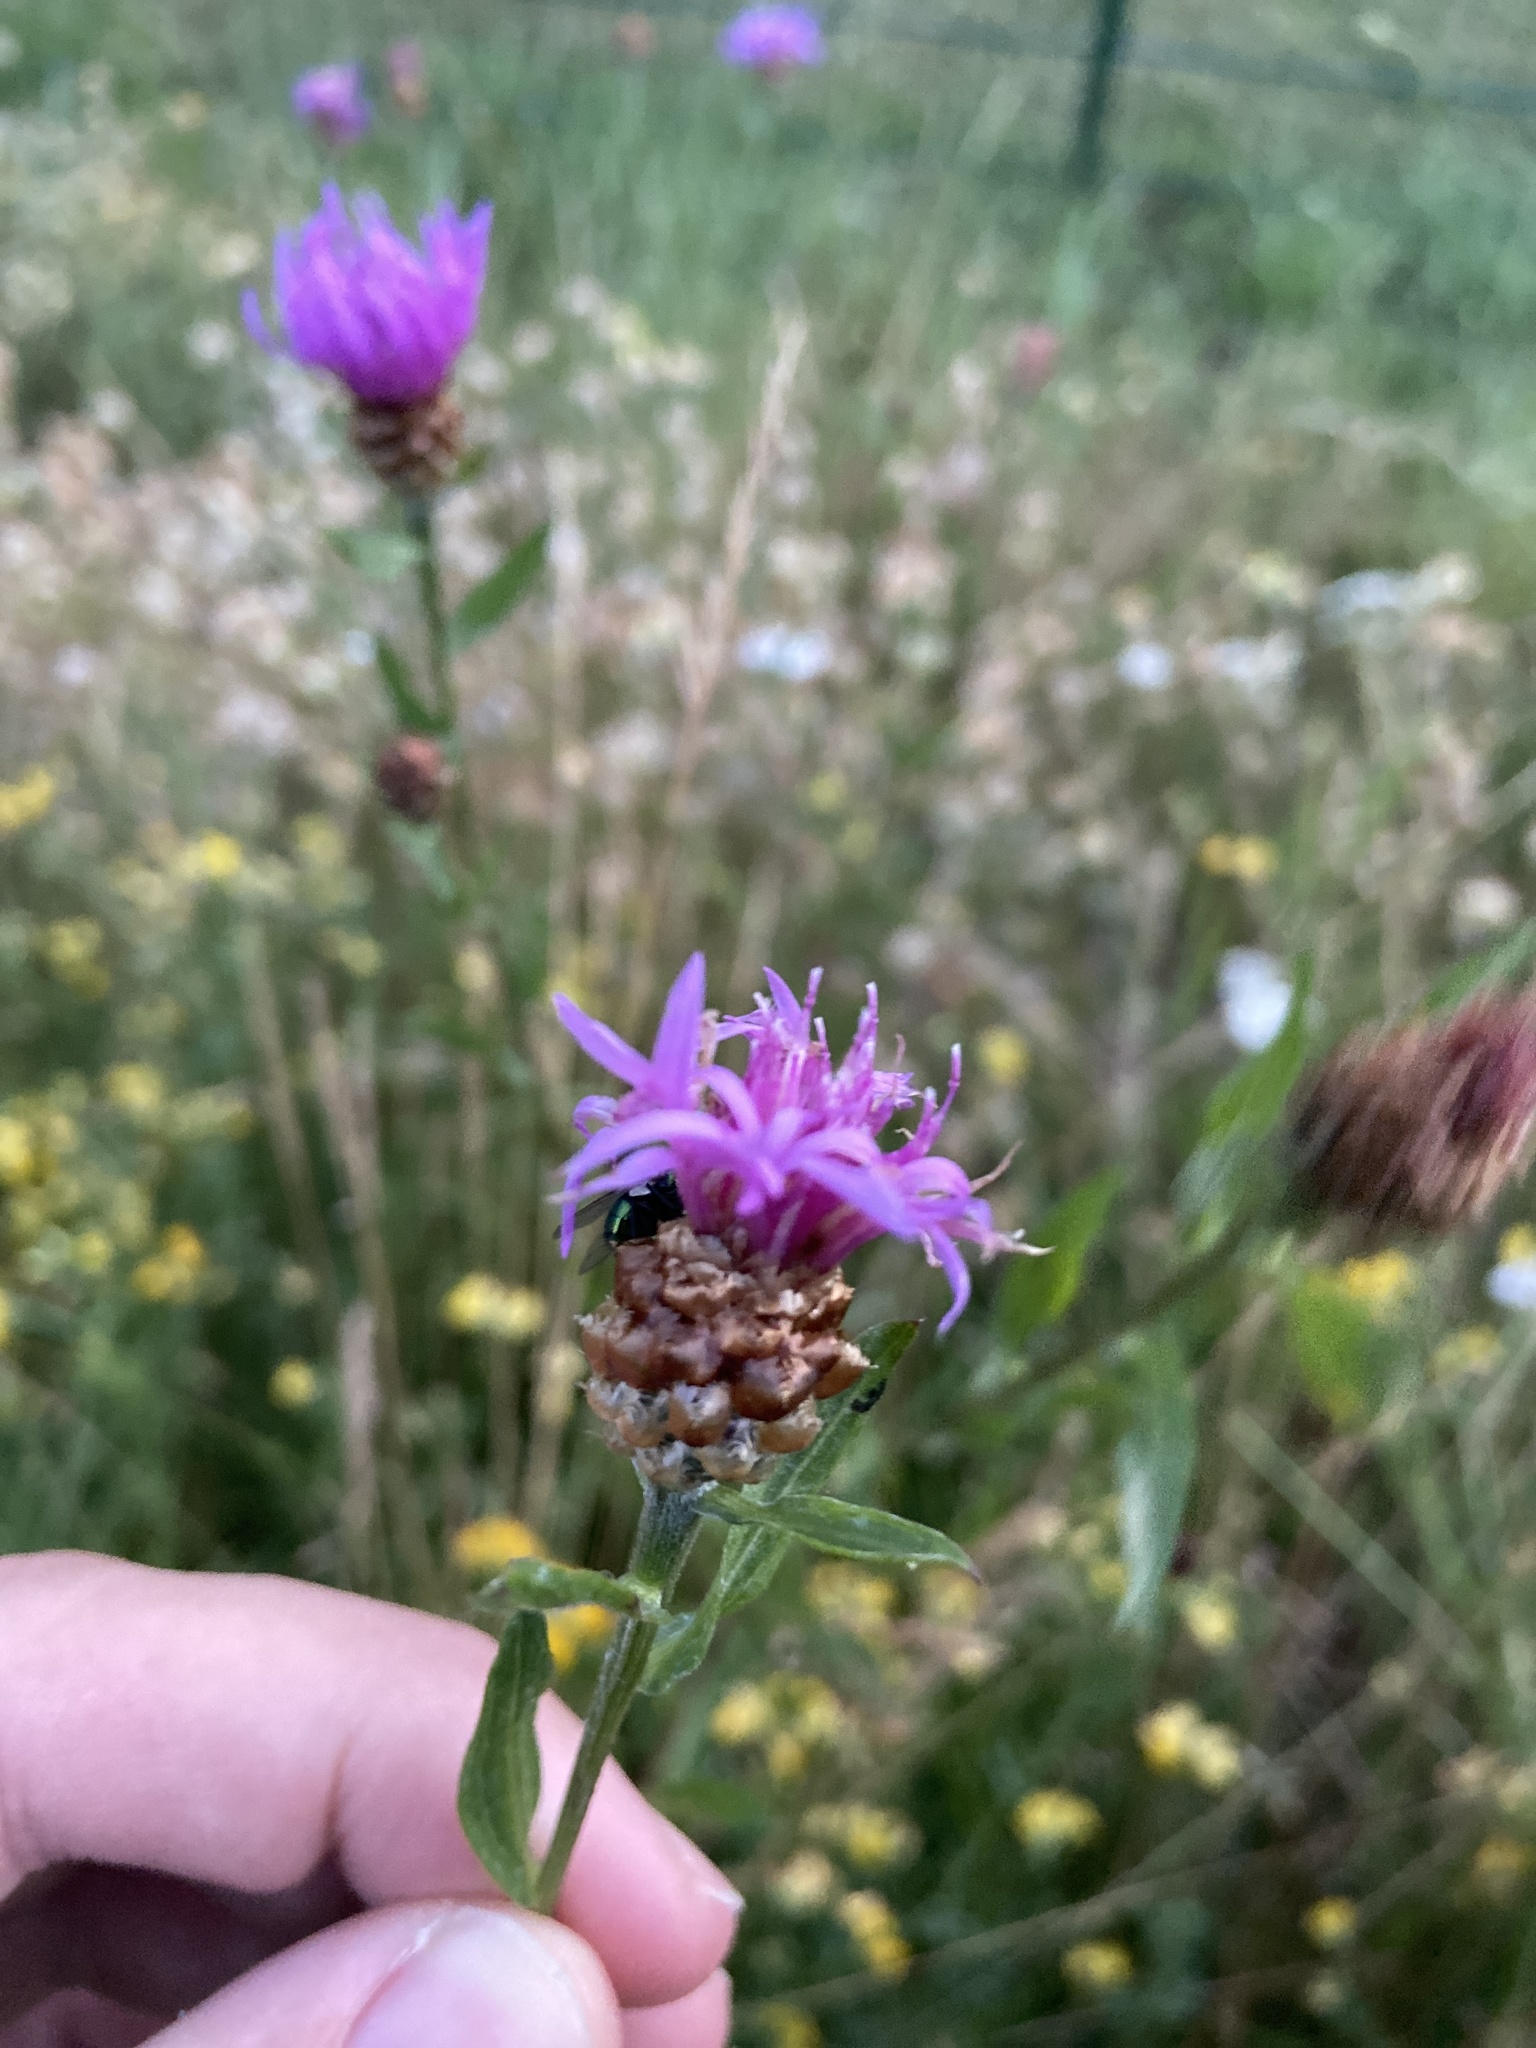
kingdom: Plantae
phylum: Tracheophyta
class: Magnoliopsida
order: Asterales
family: Asteraceae
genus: Centaurea
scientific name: Centaurea jacea
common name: Brown knapweed
